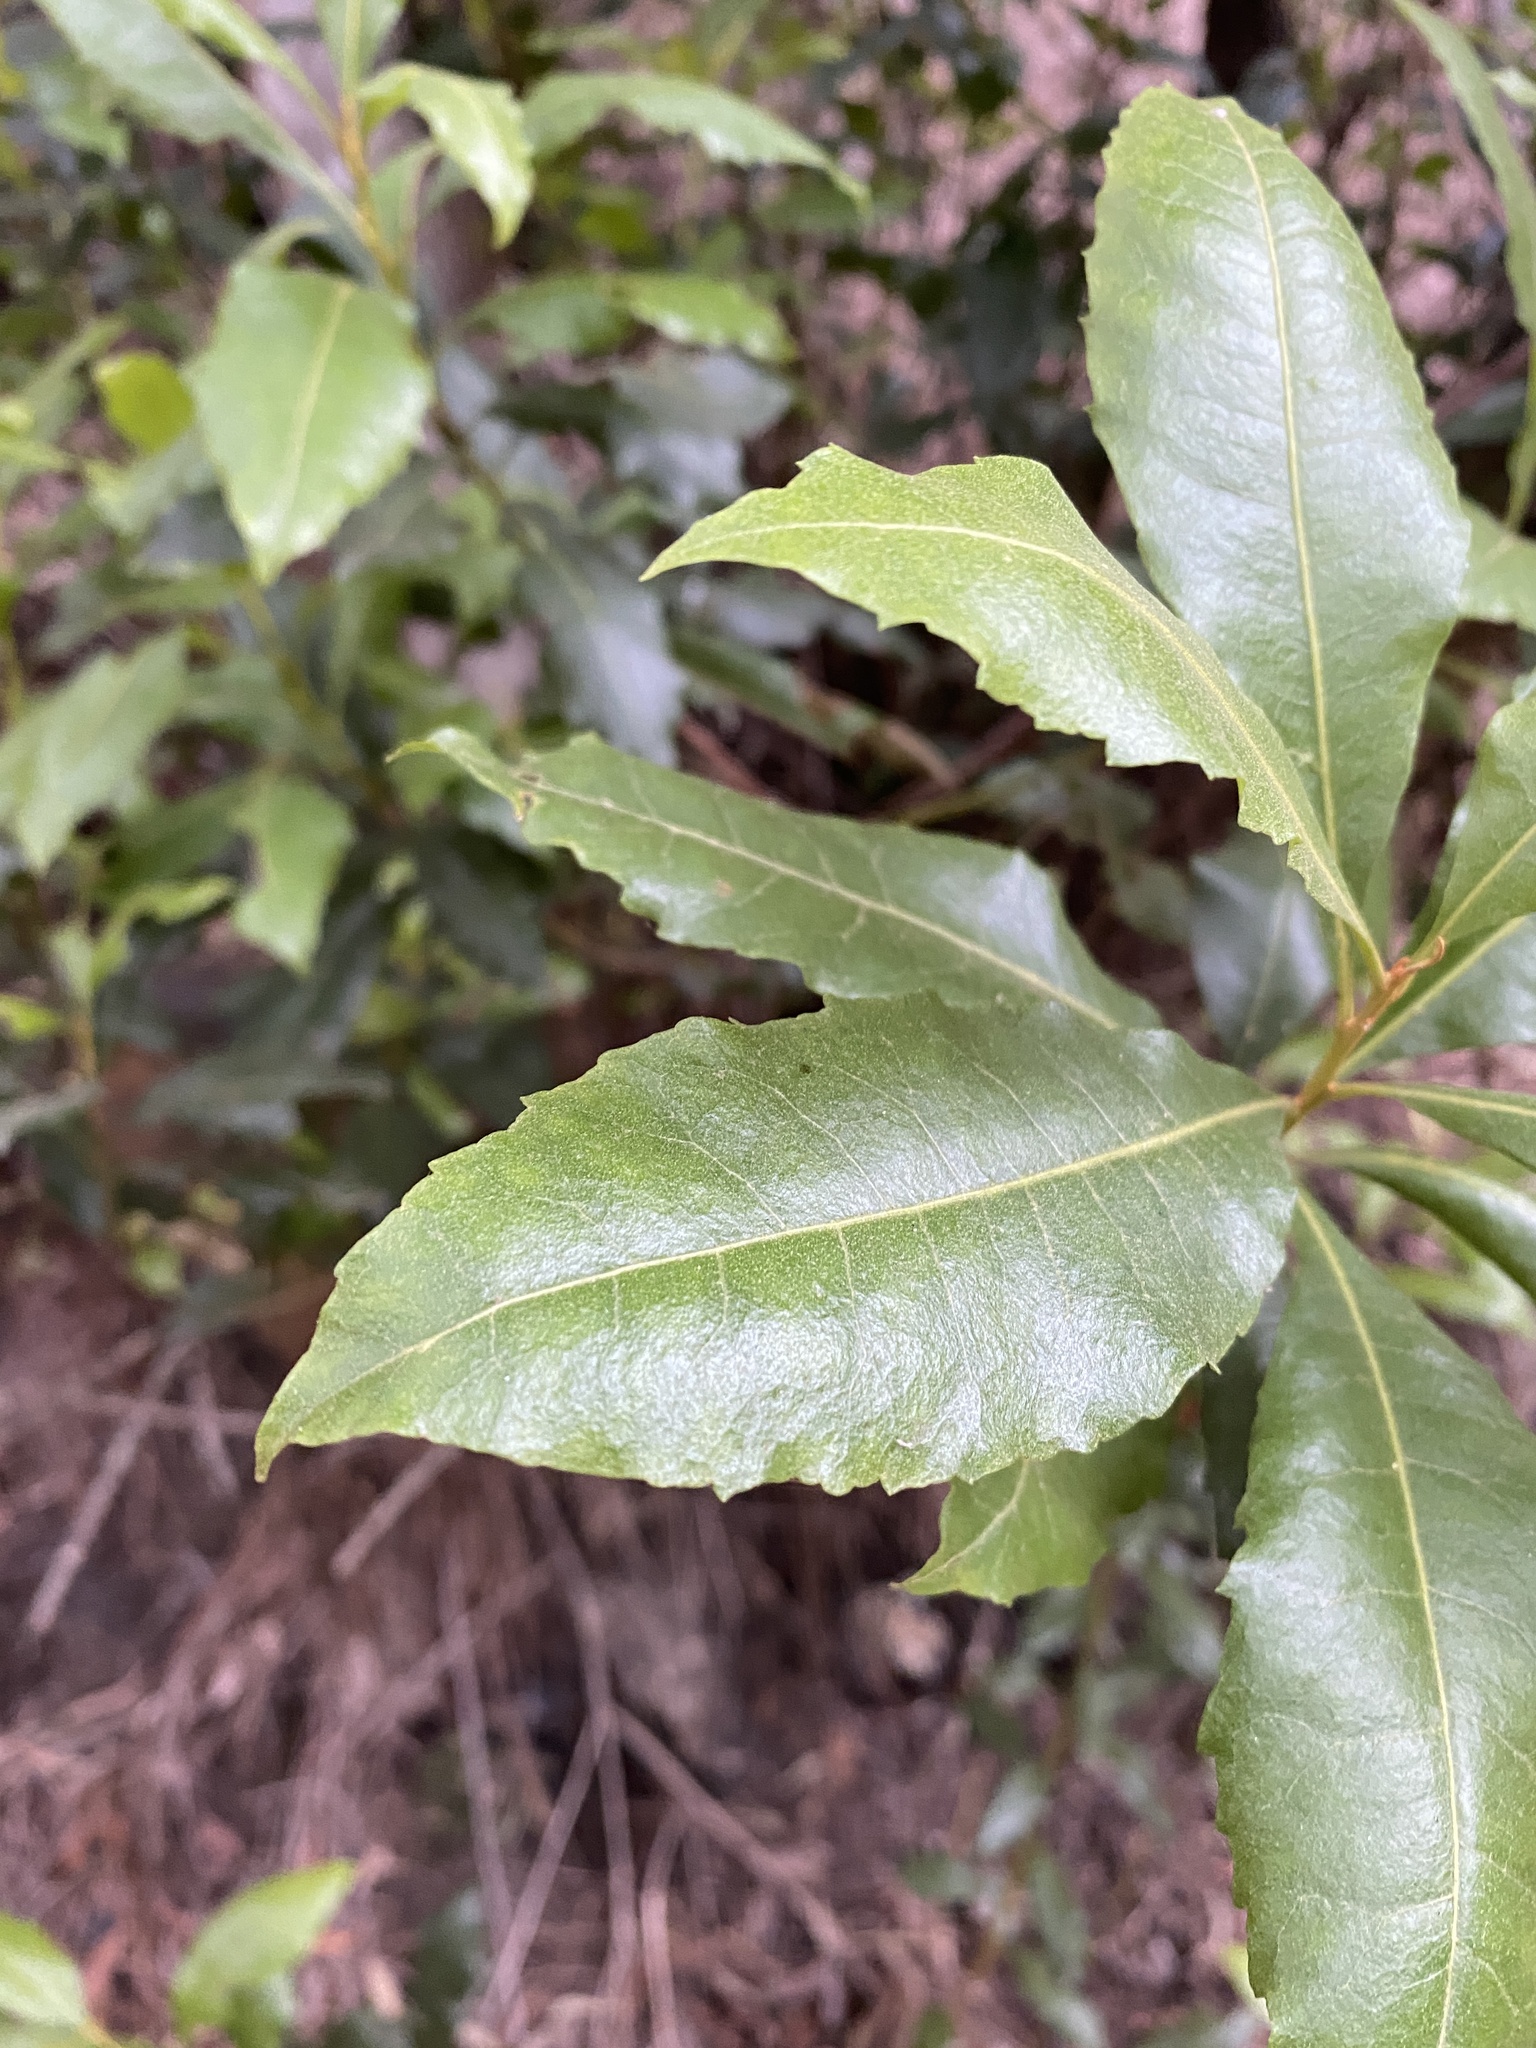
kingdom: Plantae
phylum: Tracheophyta
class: Magnoliopsida
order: Fagales
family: Myricaceae
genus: Morella
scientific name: Morella faya
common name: Firetree
